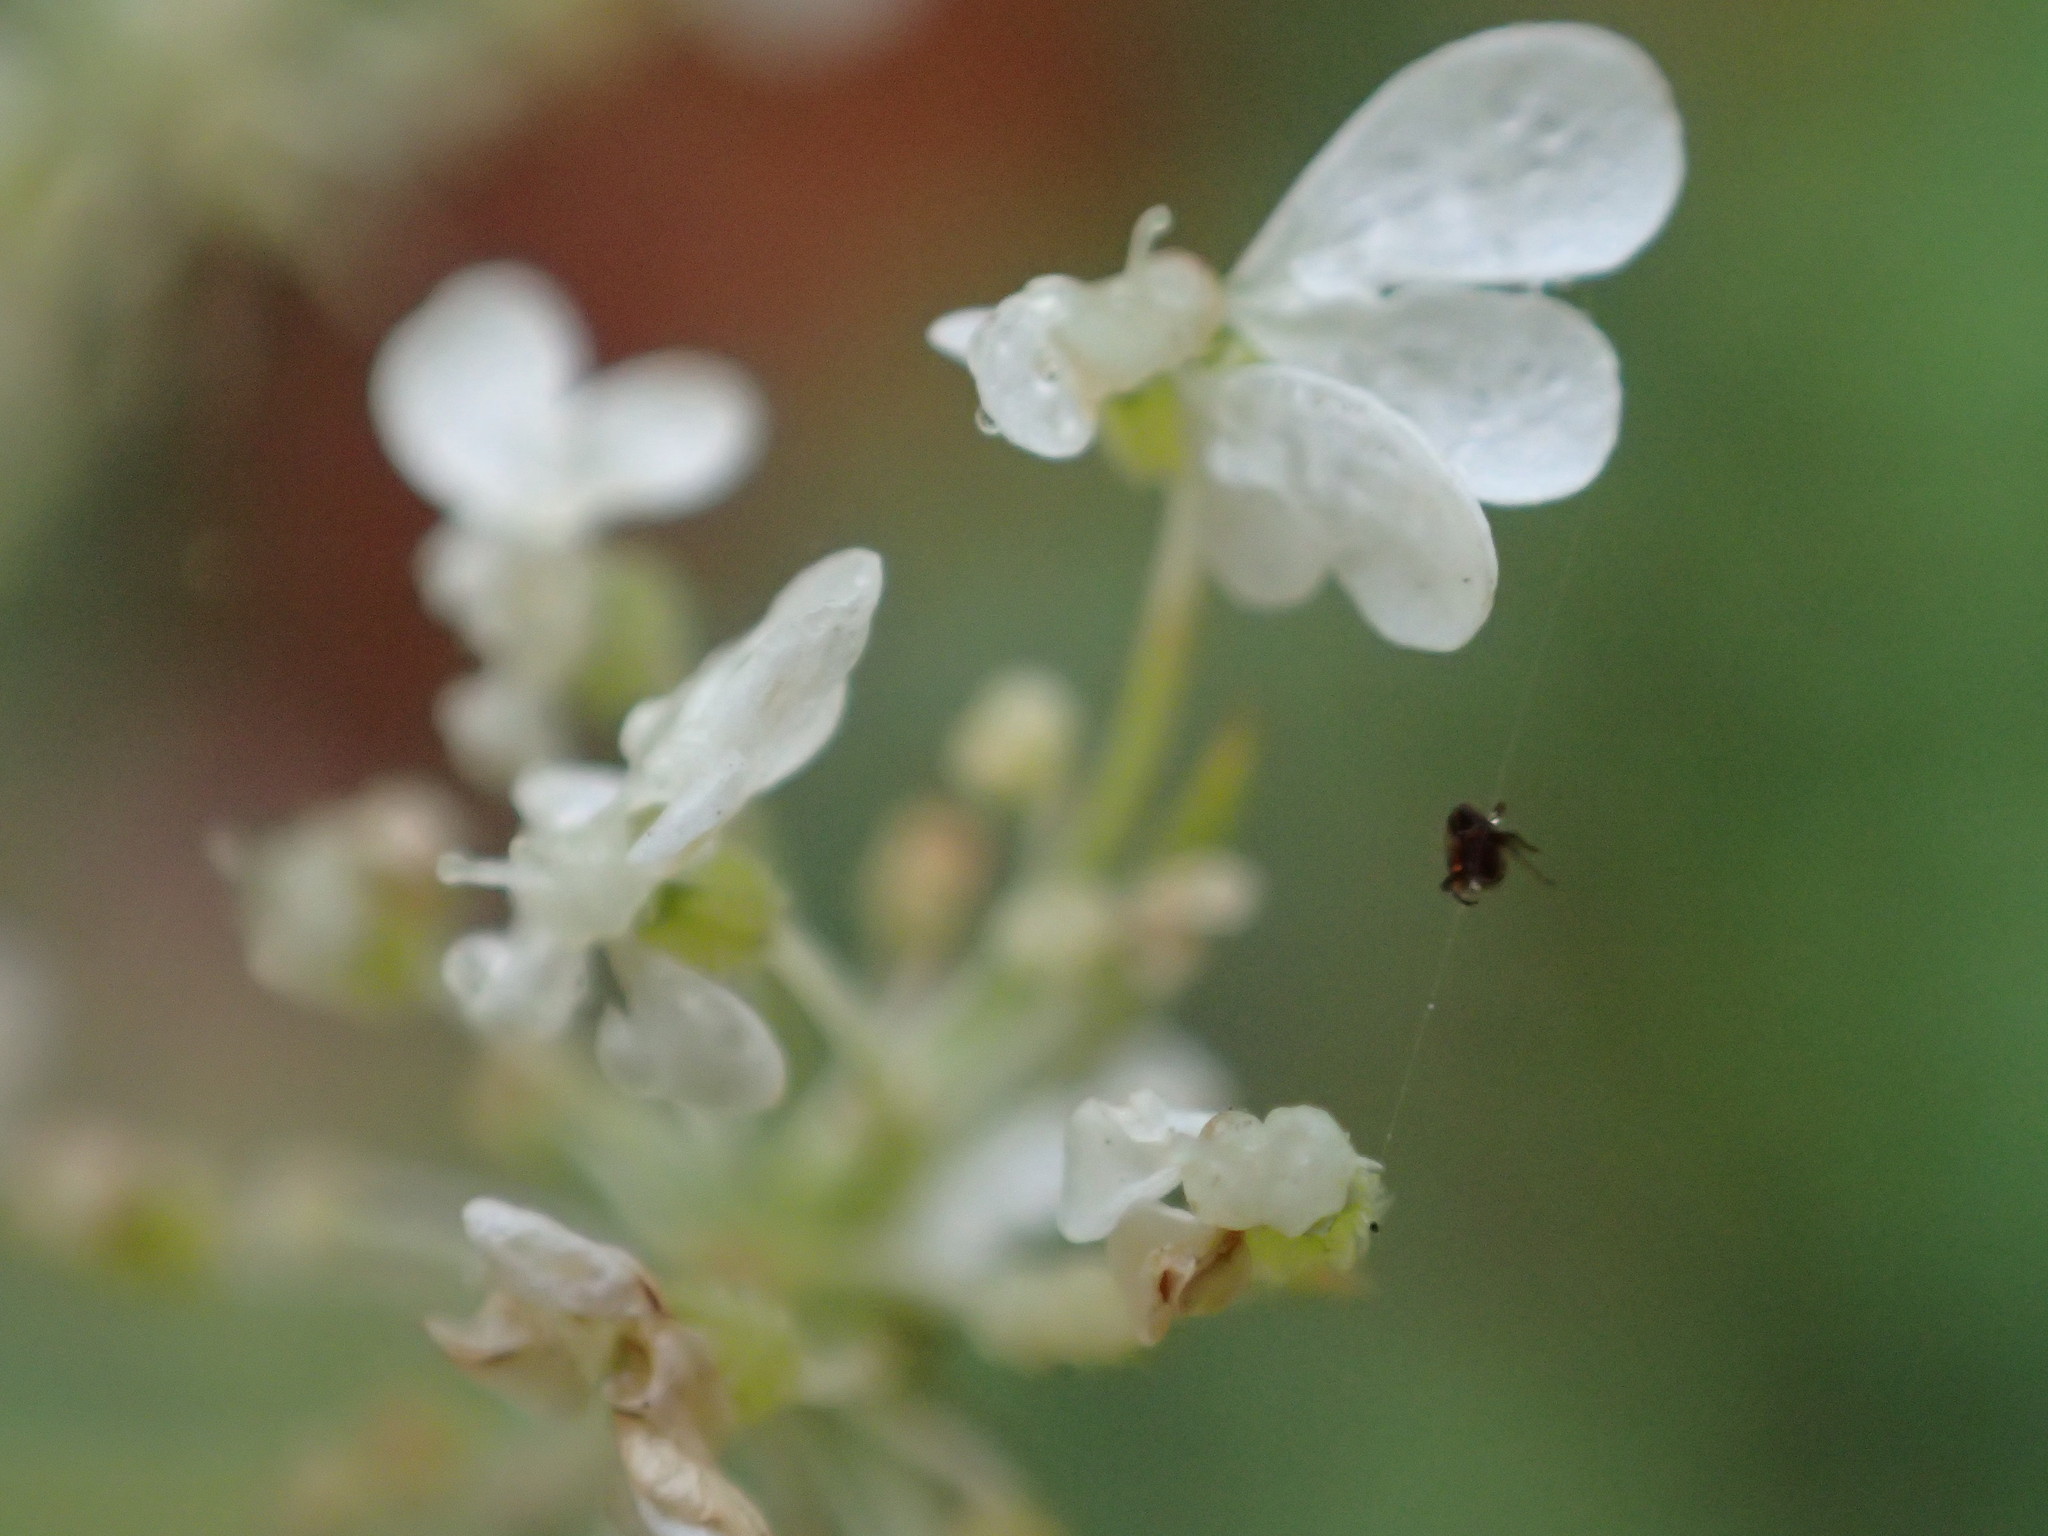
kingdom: Plantae
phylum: Tracheophyta
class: Magnoliopsida
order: Apiales
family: Apiaceae
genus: Daucus
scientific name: Daucus carota
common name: Wild carrot
